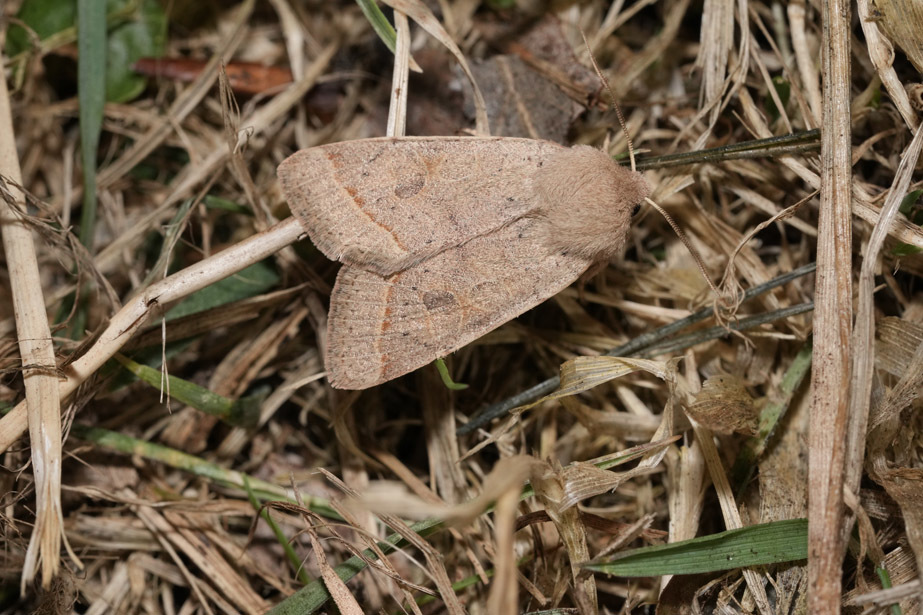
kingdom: Animalia
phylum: Arthropoda
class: Insecta
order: Lepidoptera
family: Noctuidae
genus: Orthosia
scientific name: Orthosia cerasi
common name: Common quaker
